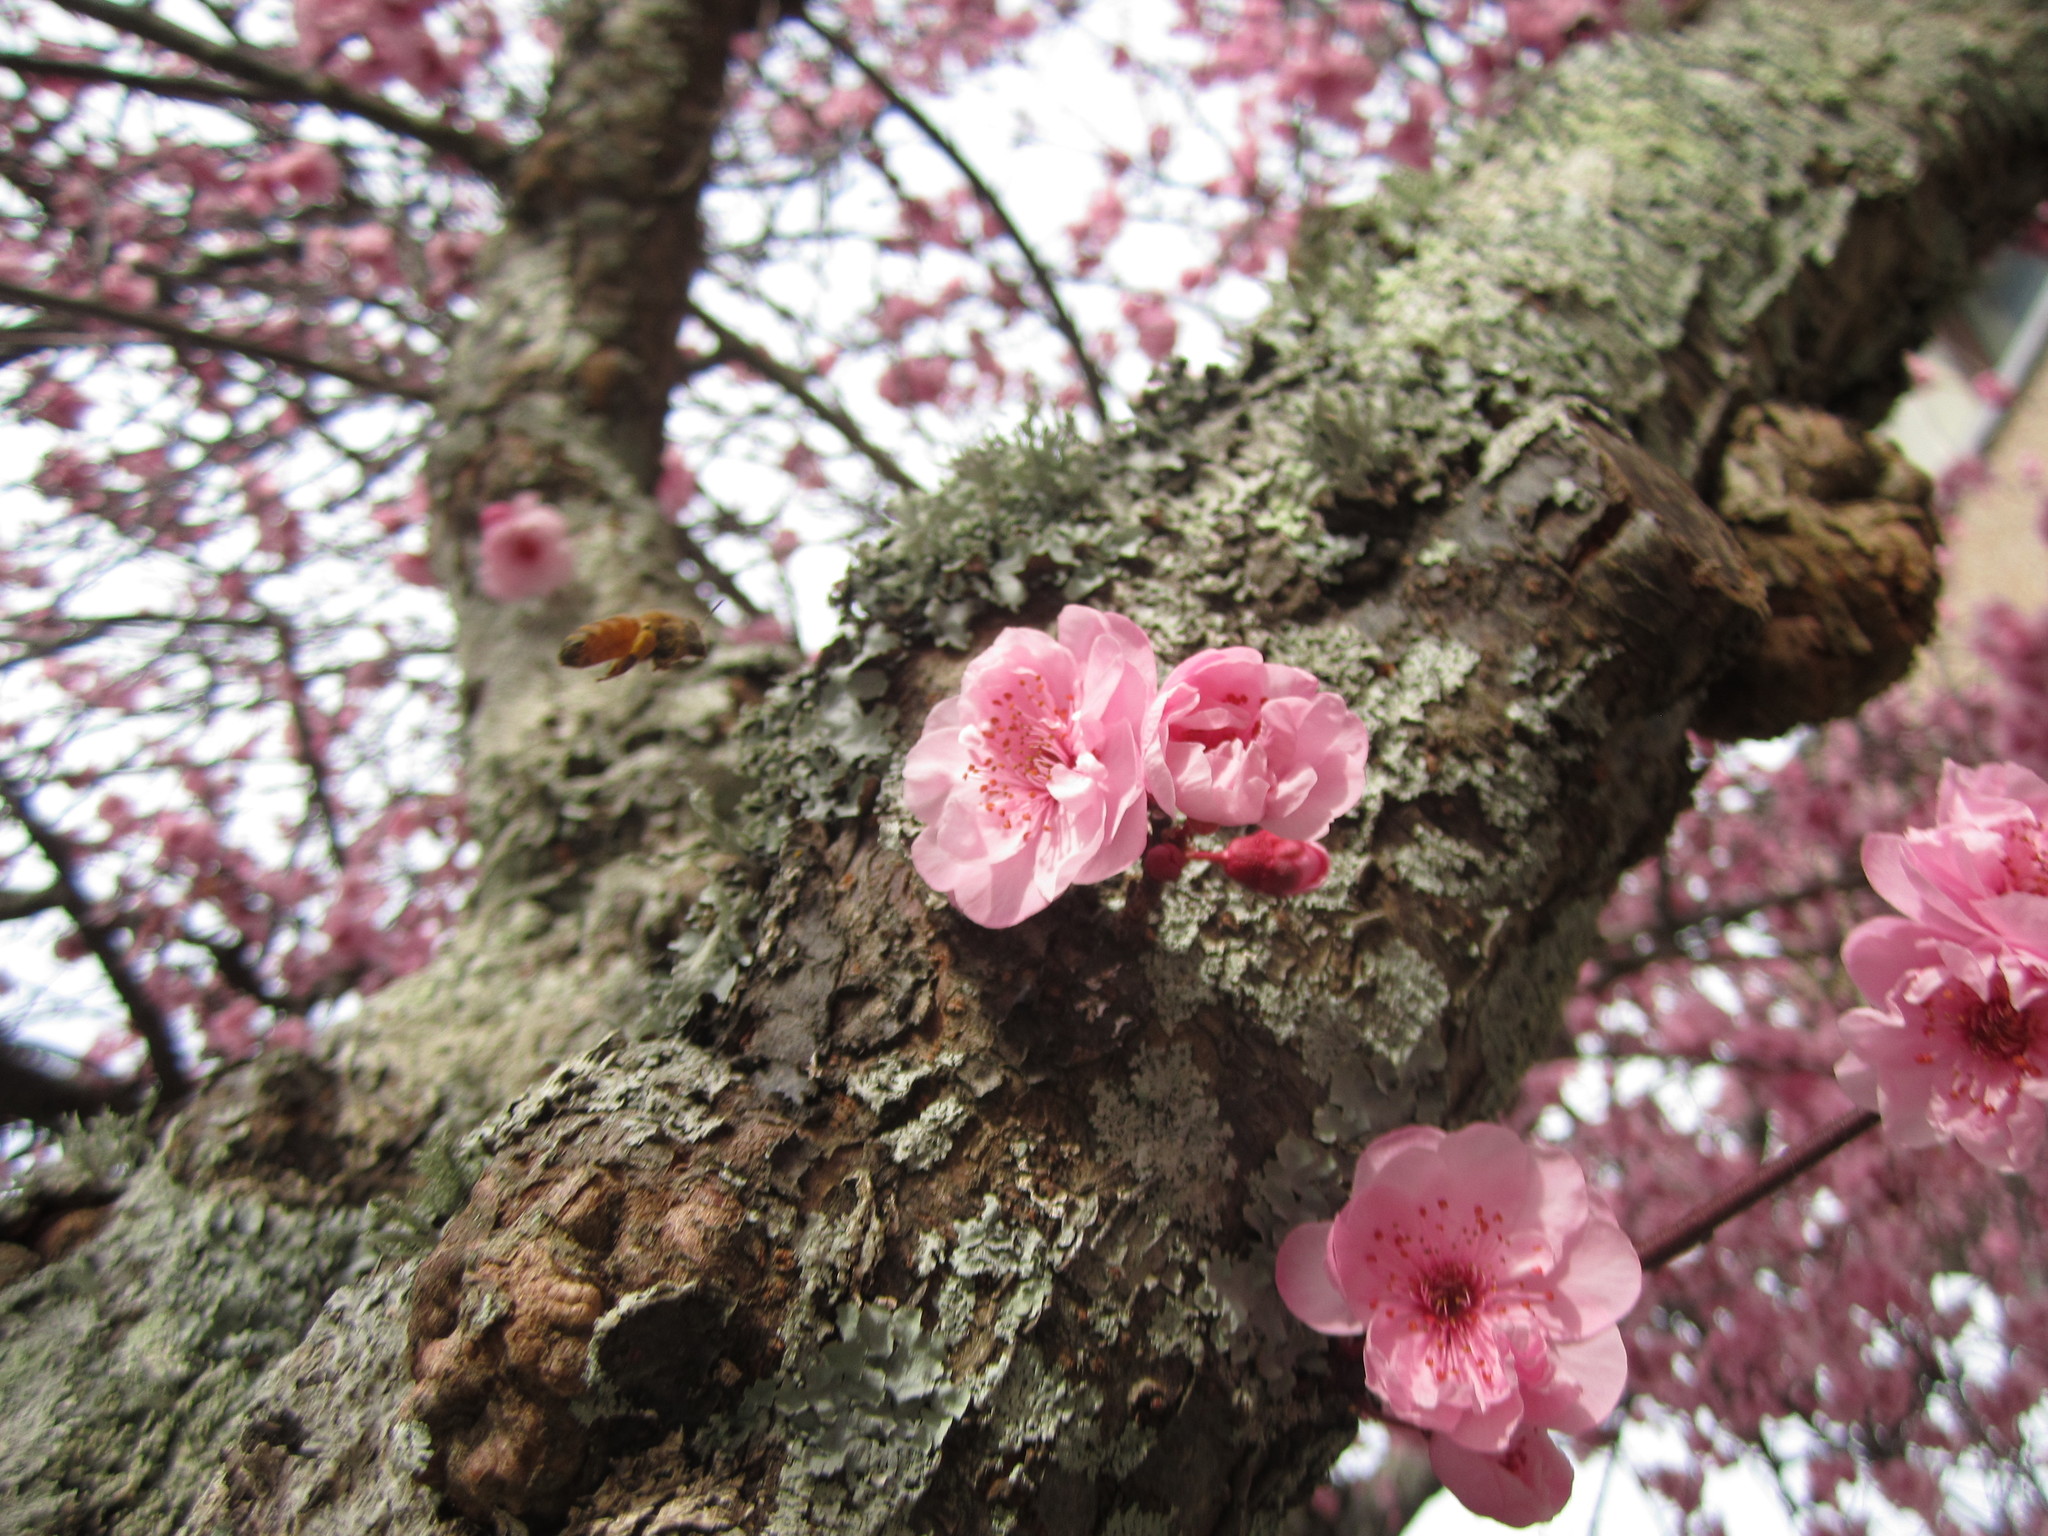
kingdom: Animalia
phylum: Arthropoda
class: Insecta
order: Hymenoptera
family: Apidae
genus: Apis
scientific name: Apis mellifera
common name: Honey bee
